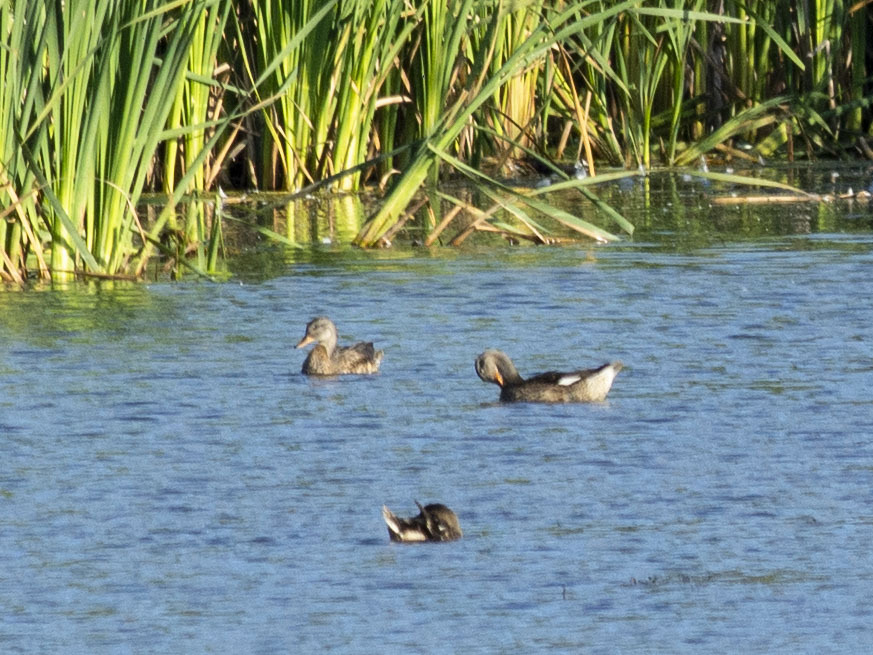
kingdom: Animalia
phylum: Chordata
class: Aves
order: Anseriformes
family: Anatidae
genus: Mareca
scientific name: Mareca strepera
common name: Gadwall
